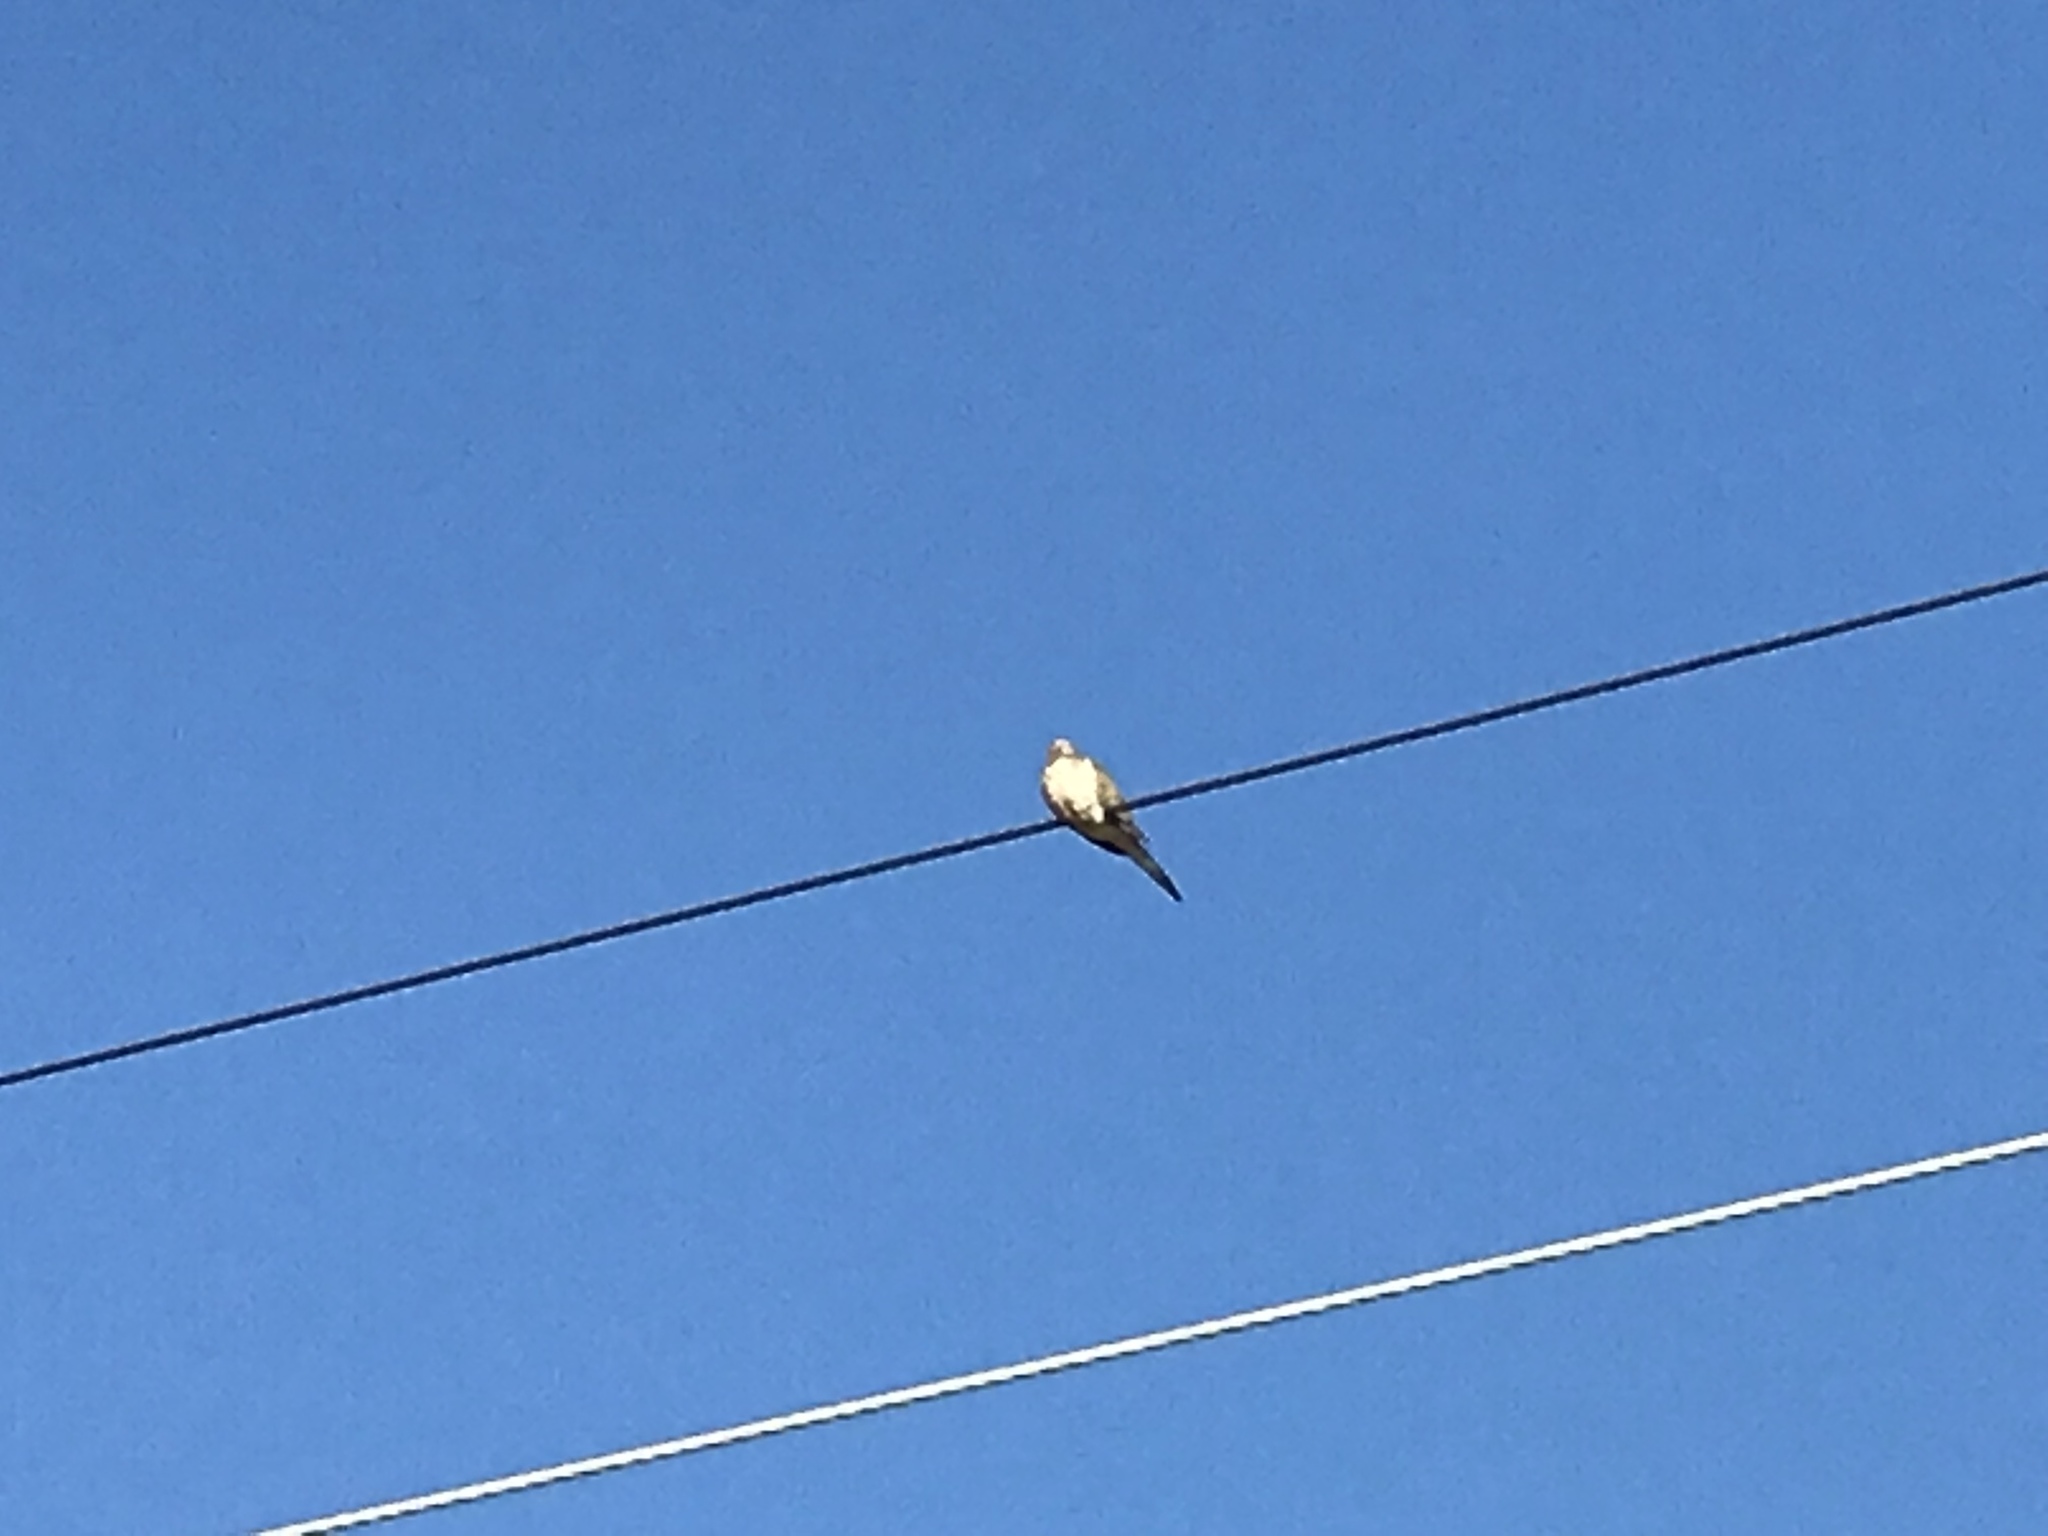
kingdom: Animalia
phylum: Chordata
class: Aves
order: Columbiformes
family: Columbidae
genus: Zenaida
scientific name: Zenaida macroura
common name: Mourning dove
